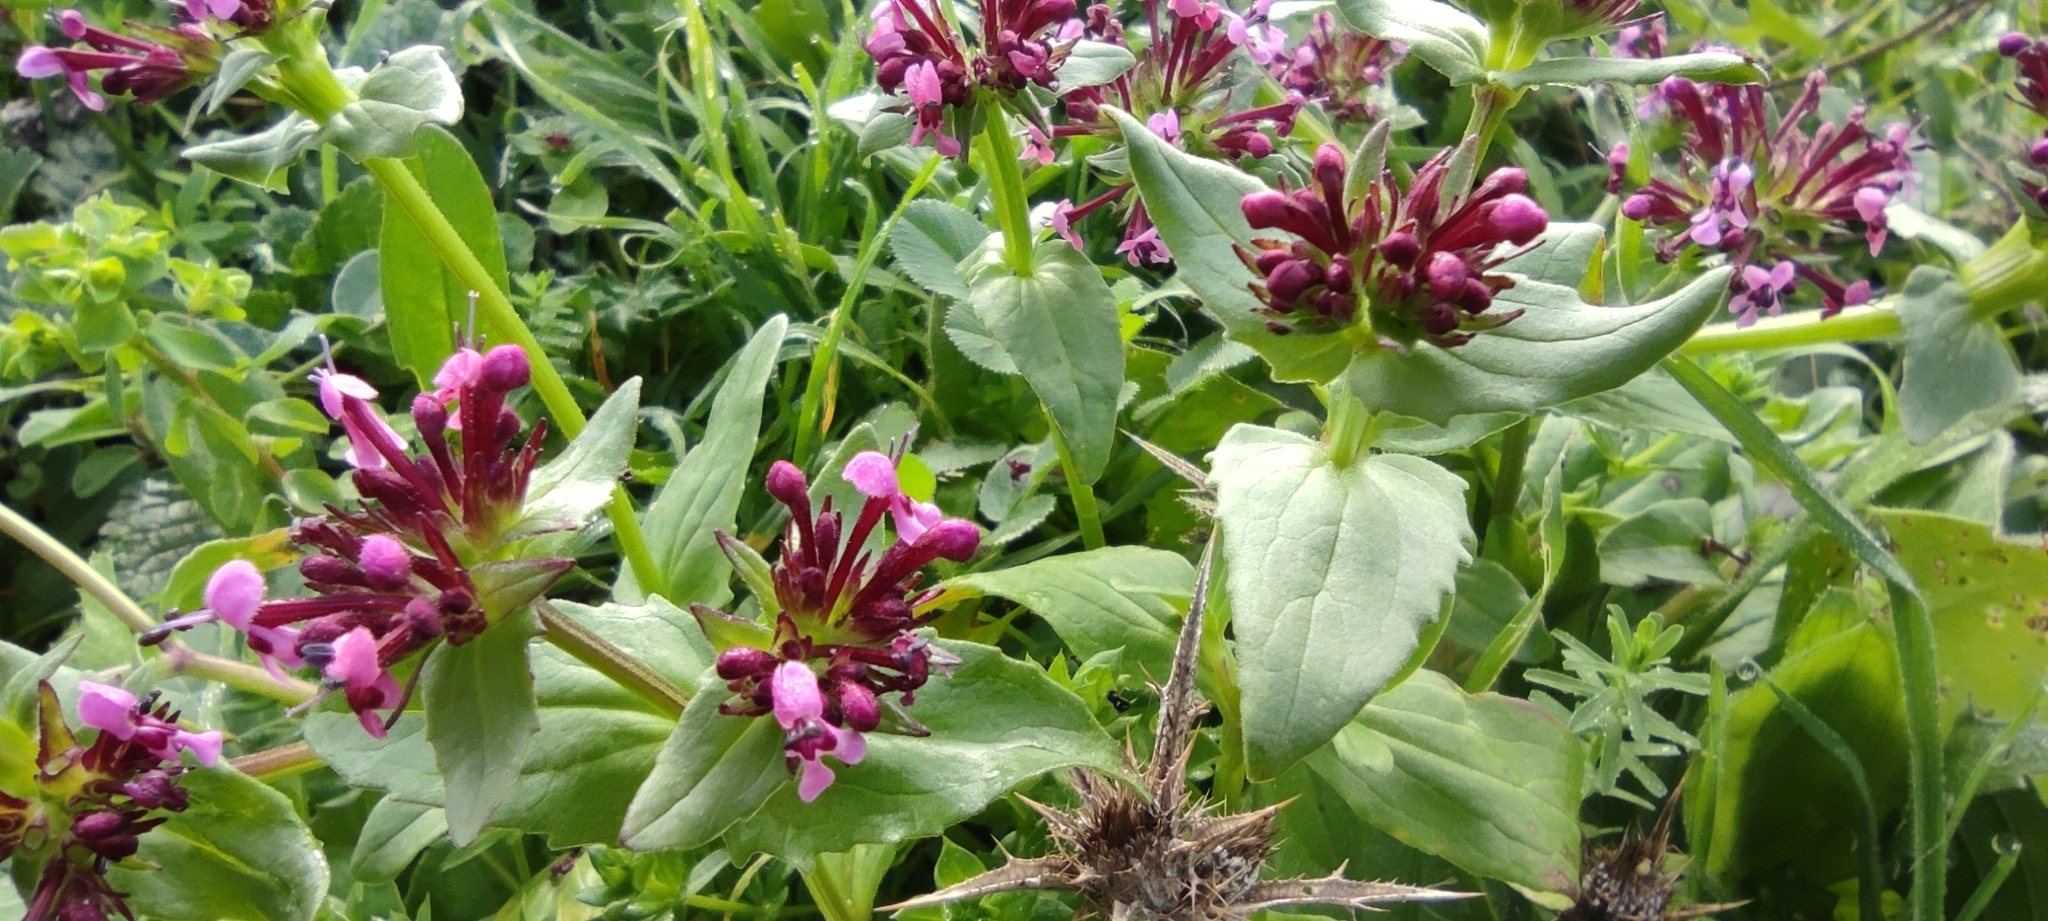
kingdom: Plantae
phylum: Tracheophyta
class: Magnoliopsida
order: Dipsacales
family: Caprifoliaceae
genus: Fedia
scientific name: Fedia cornucopiae
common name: Horn-of-plenty
